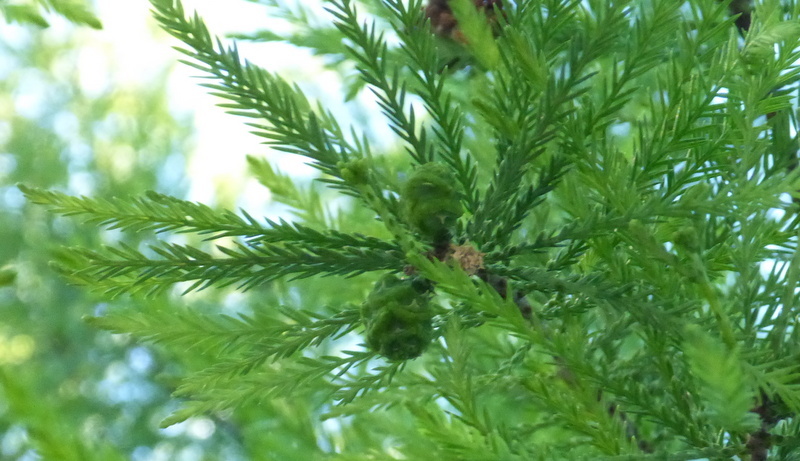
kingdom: Plantae
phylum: Tracheophyta
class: Pinopsida
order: Pinales
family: Cupressaceae
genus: Taxodium
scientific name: Taxodium distichum
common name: Bald cypress
